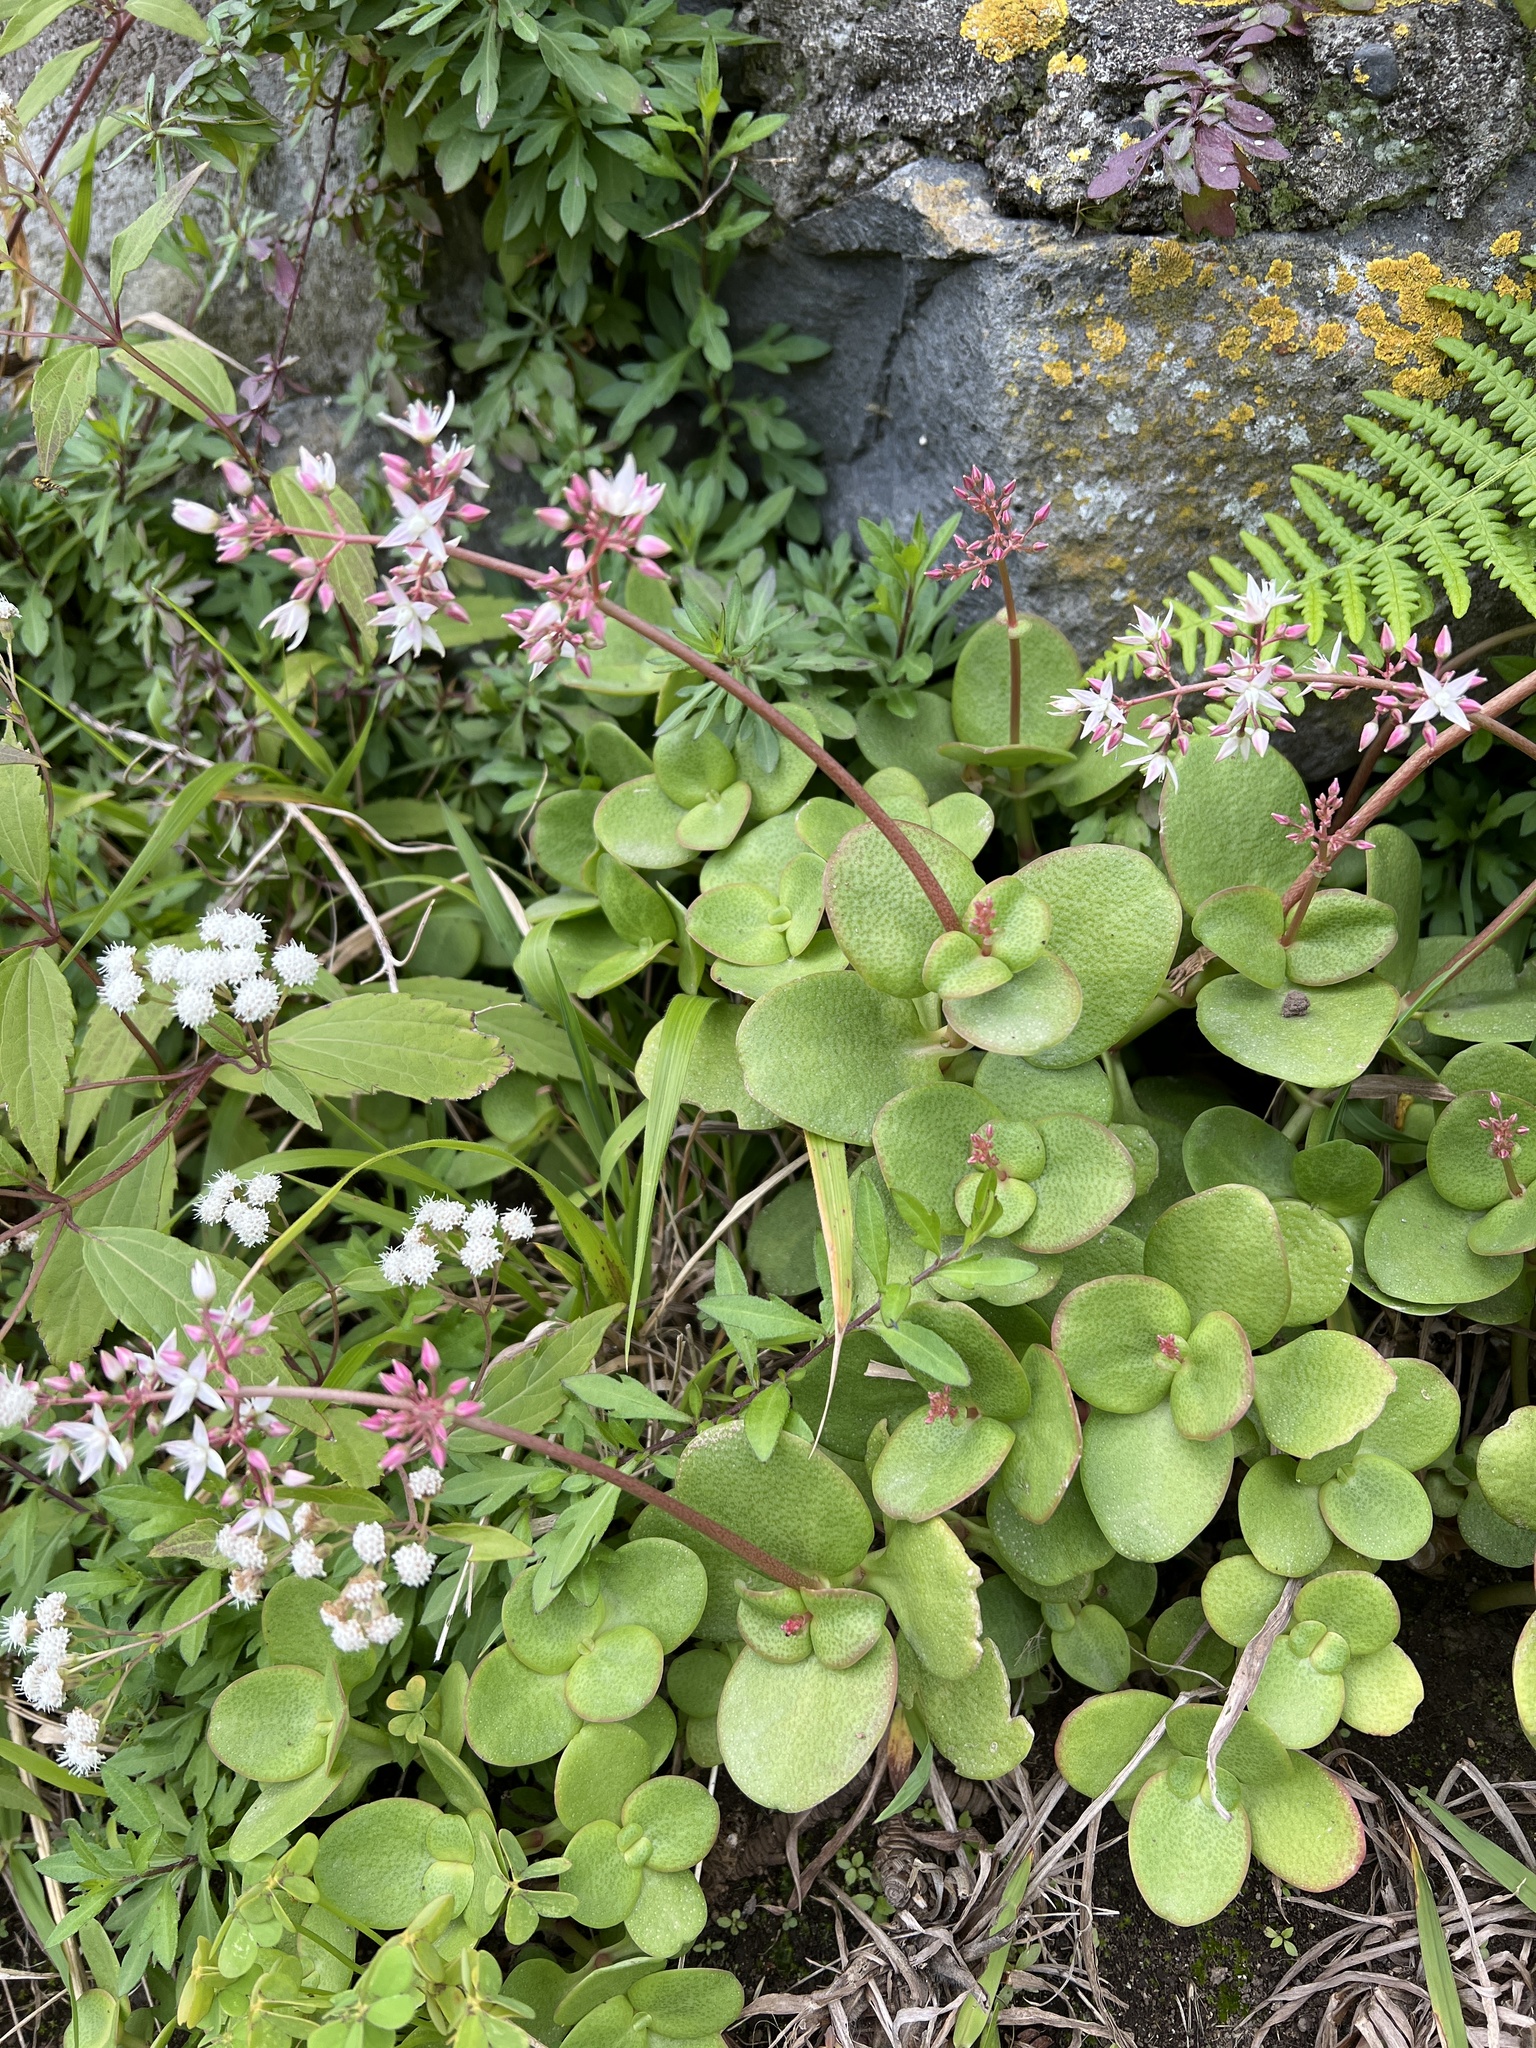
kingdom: Plantae
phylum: Tracheophyta
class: Magnoliopsida
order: Saxifragales
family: Crassulaceae
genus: Crassula
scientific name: Crassula multicava
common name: Cape province pygmyweed
